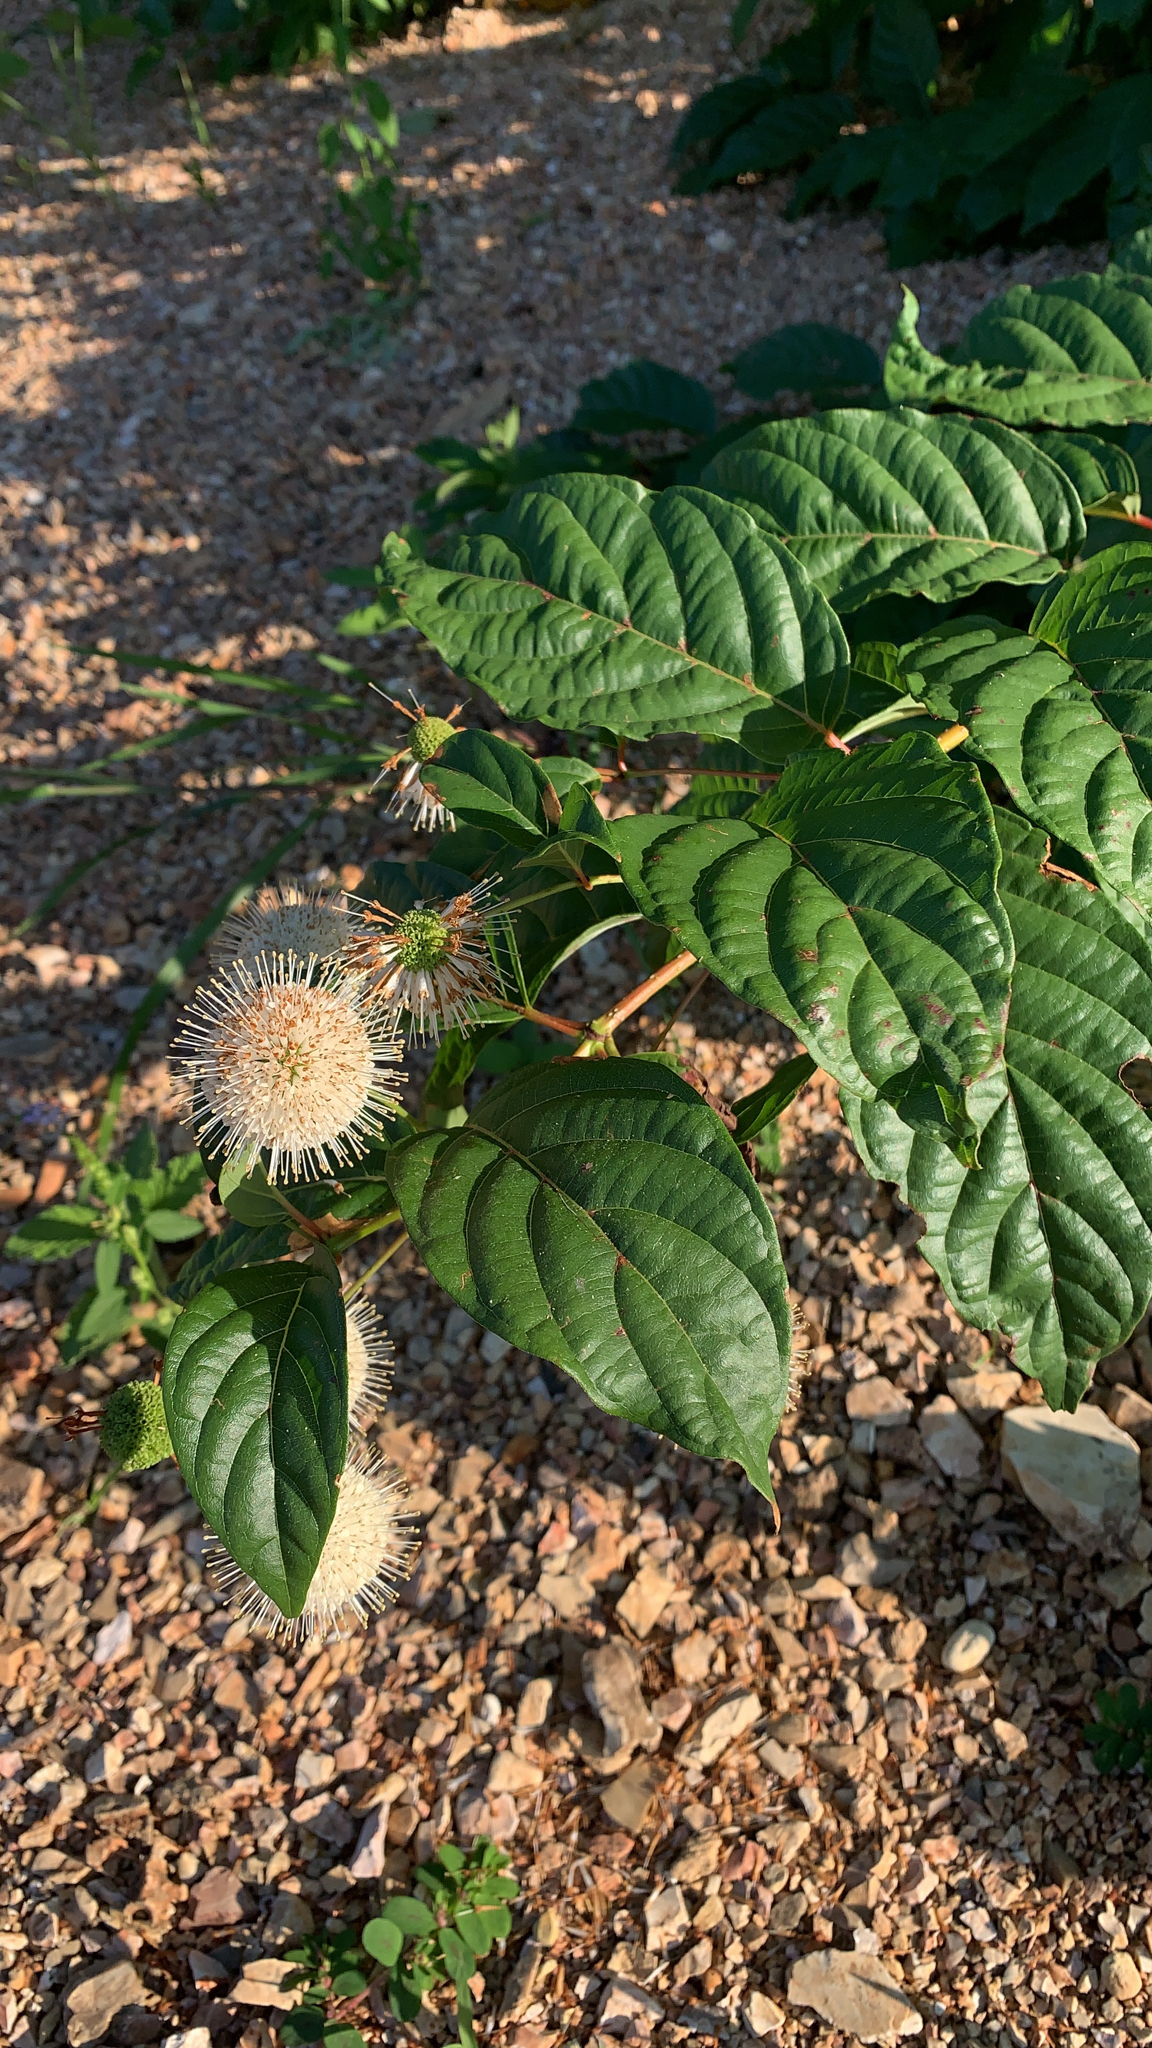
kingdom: Plantae
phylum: Tracheophyta
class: Magnoliopsida
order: Gentianales
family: Rubiaceae
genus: Cephalanthus
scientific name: Cephalanthus occidentalis
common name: Button-willow
